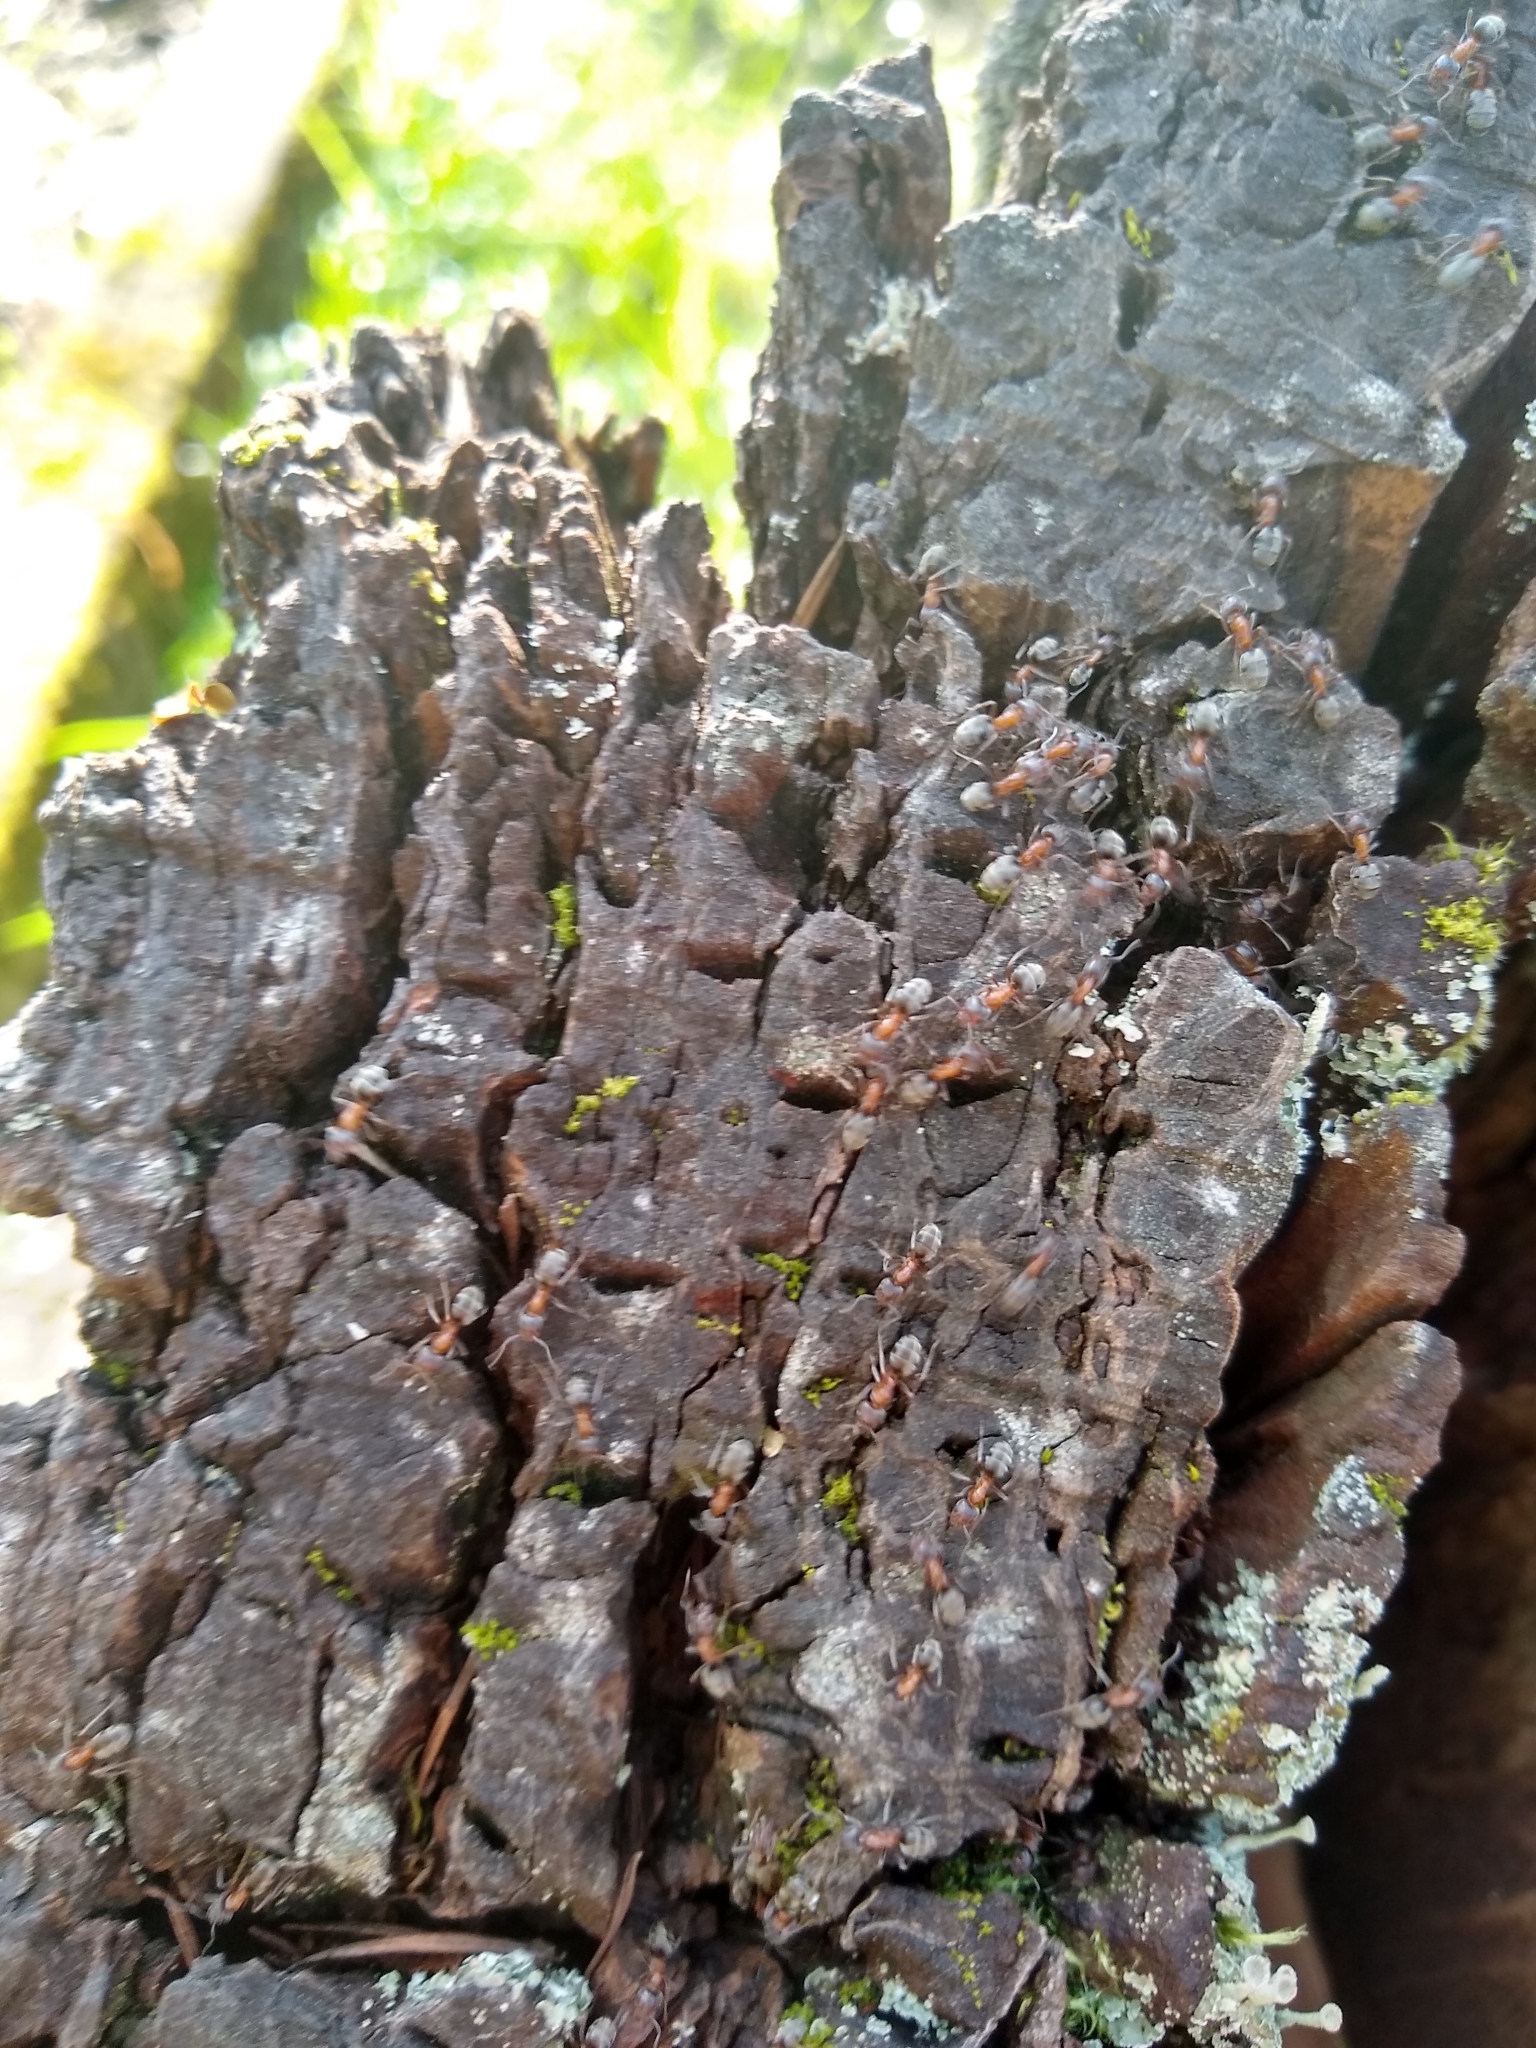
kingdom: Animalia
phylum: Arthropoda
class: Insecta
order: Hymenoptera
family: Formicidae
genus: Liometopum
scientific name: Liometopum occidentale
